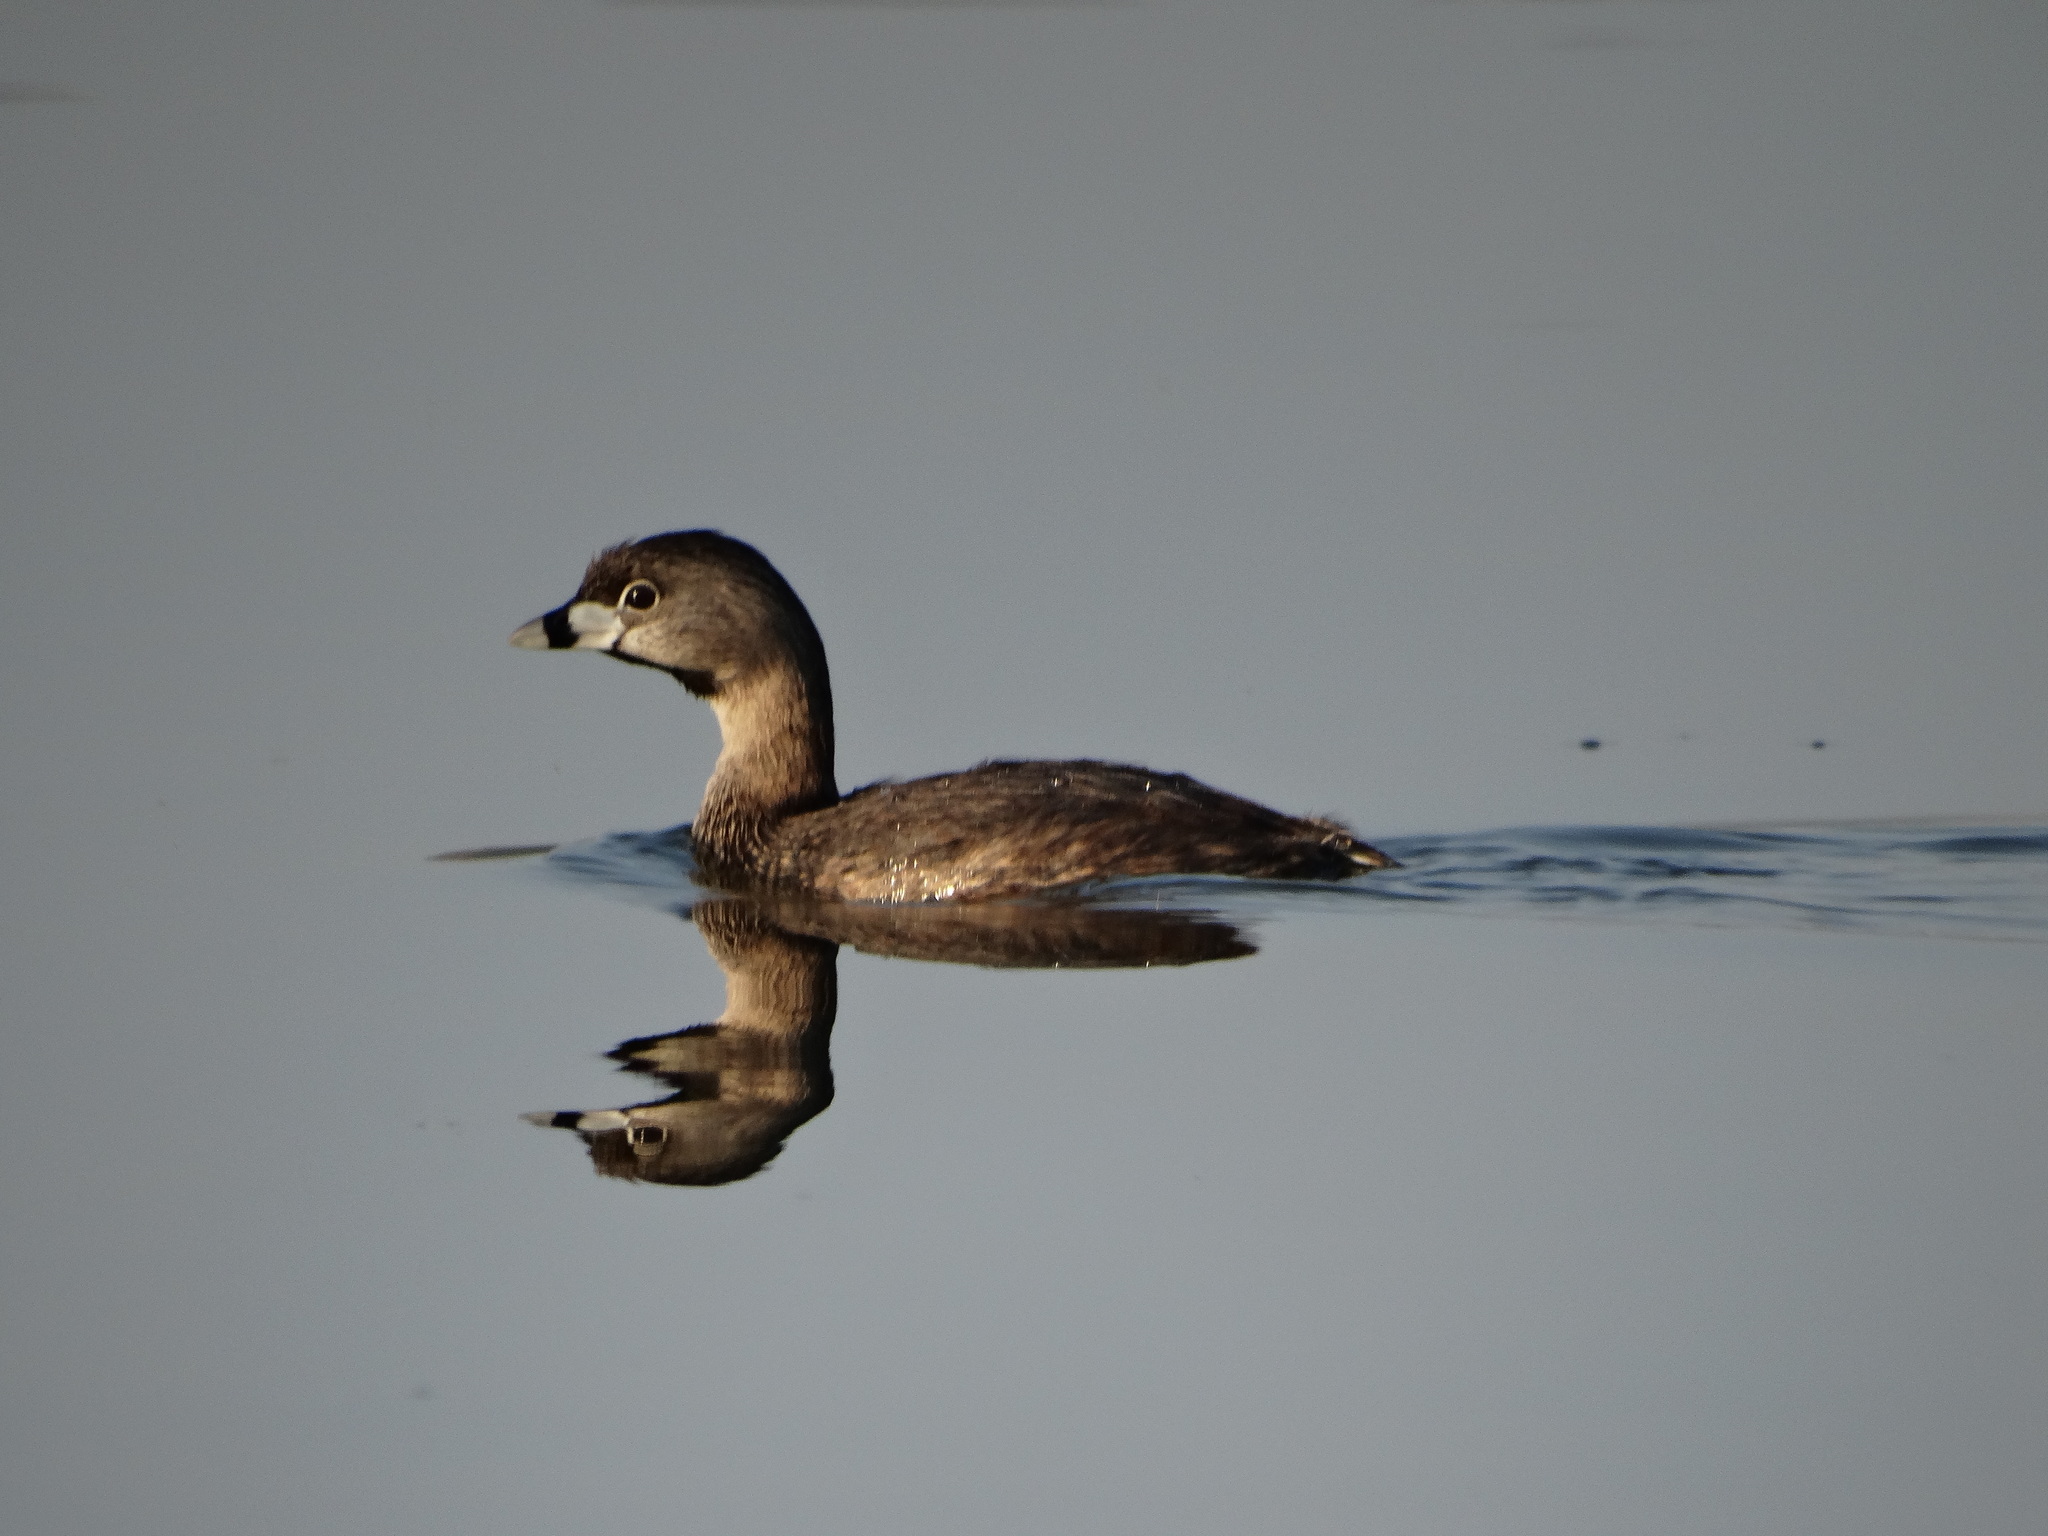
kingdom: Animalia
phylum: Chordata
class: Aves
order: Podicipediformes
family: Podicipedidae
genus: Podilymbus
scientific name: Podilymbus podiceps
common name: Pied-billed grebe
